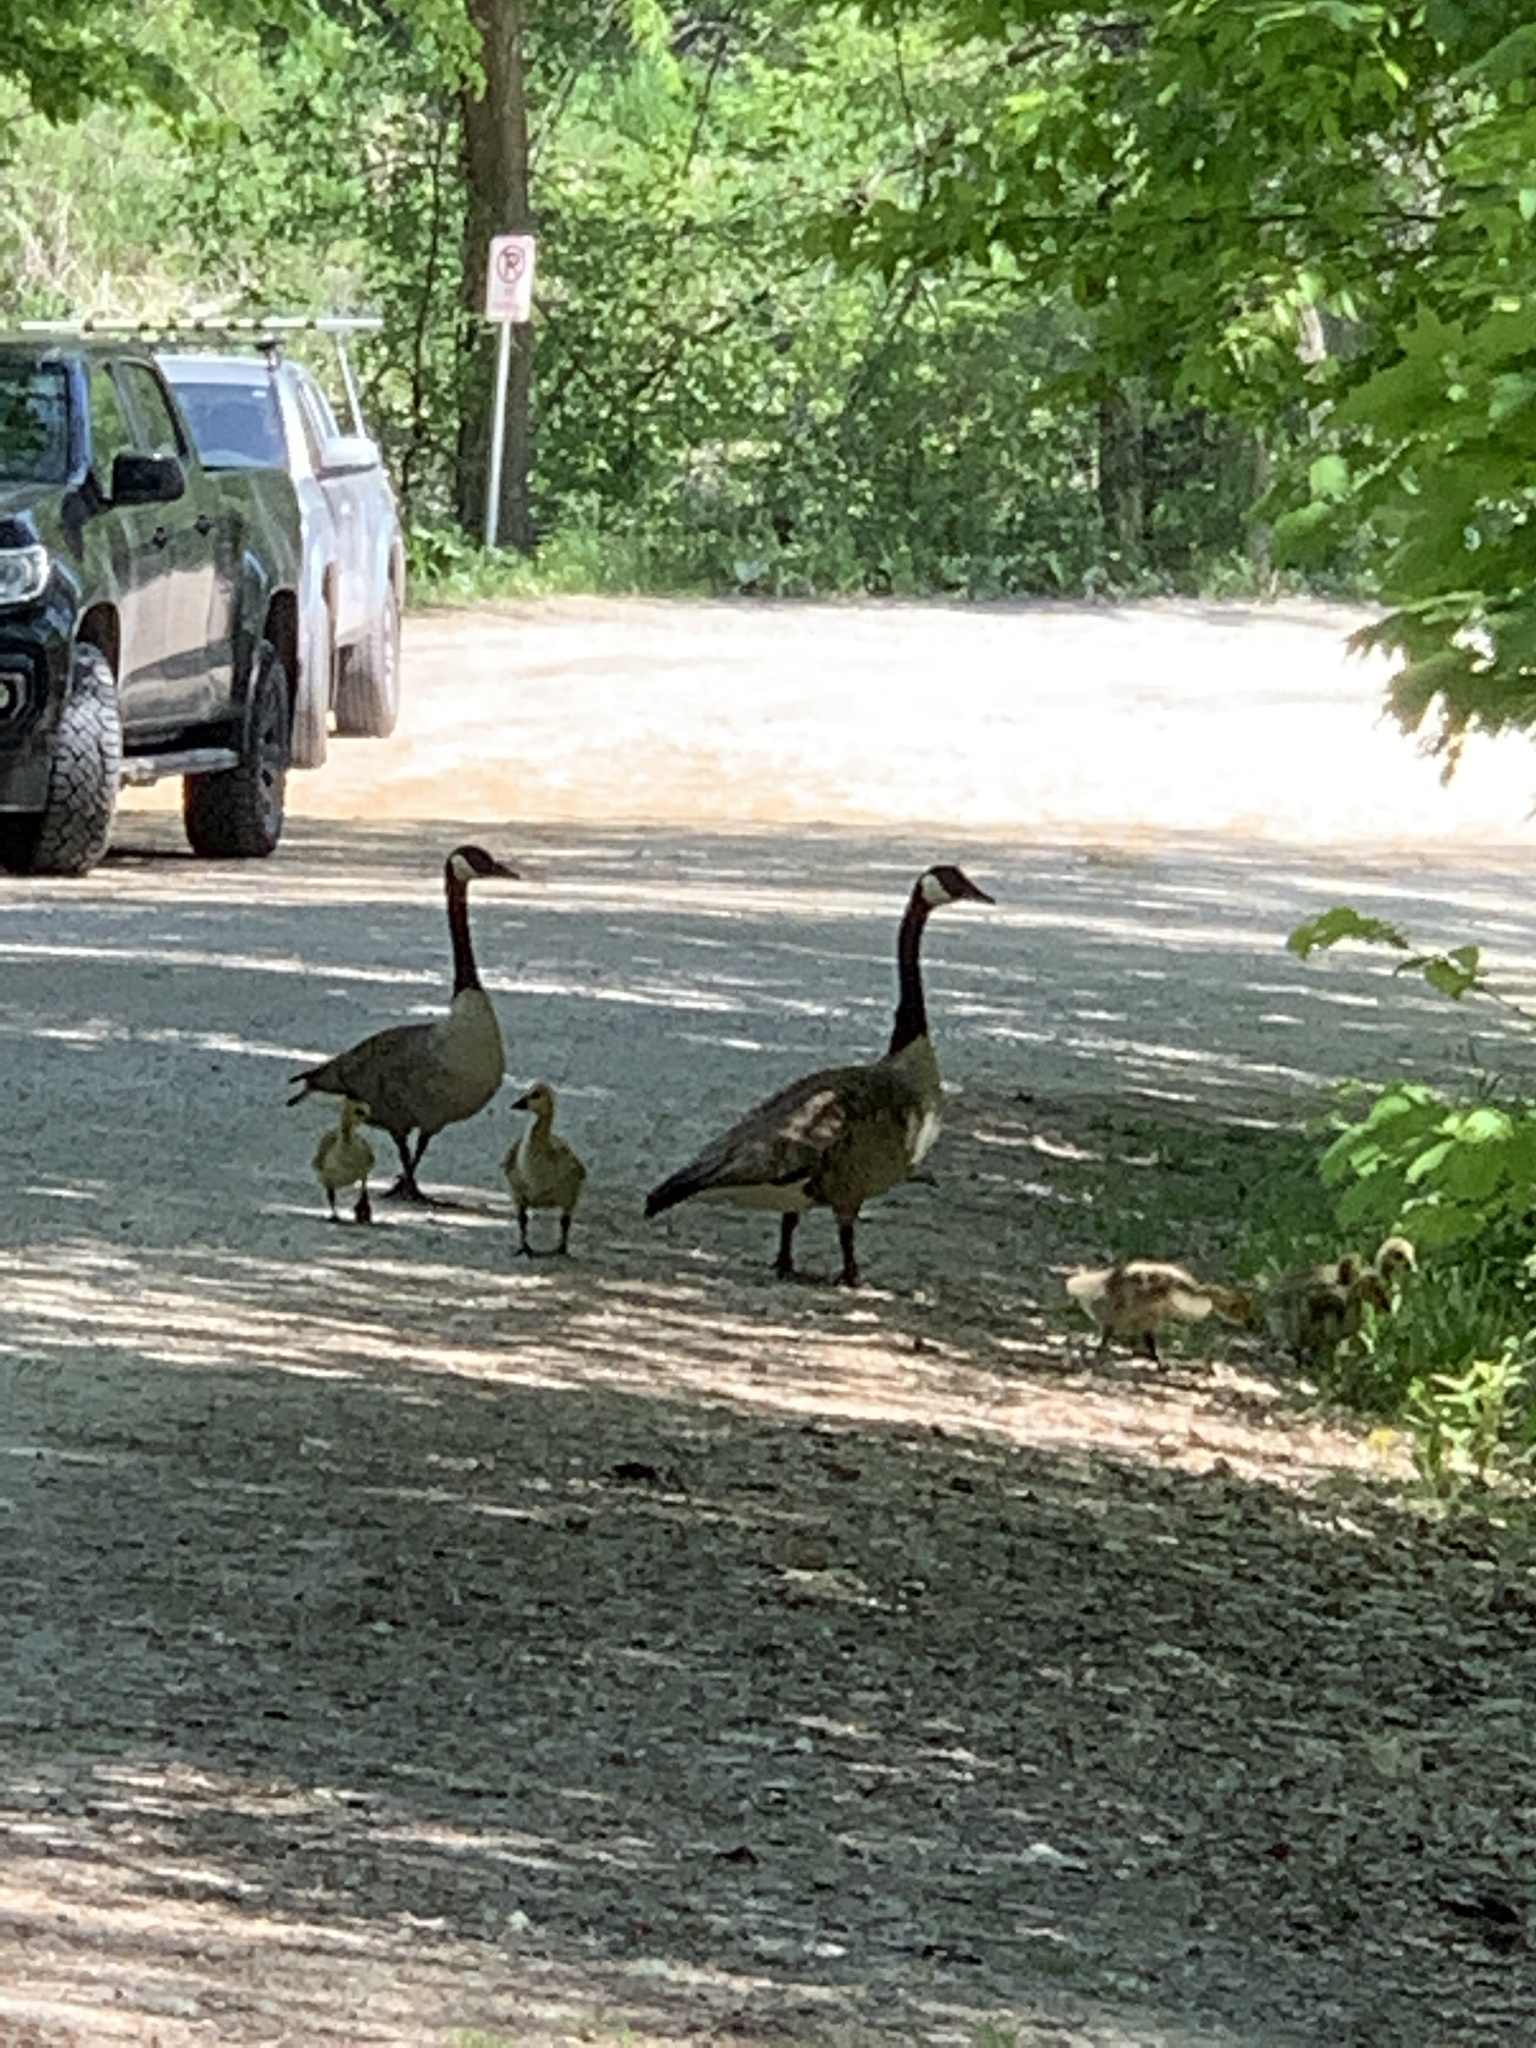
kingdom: Animalia
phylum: Chordata
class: Aves
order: Anseriformes
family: Anatidae
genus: Branta
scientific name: Branta canadensis
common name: Canada goose
